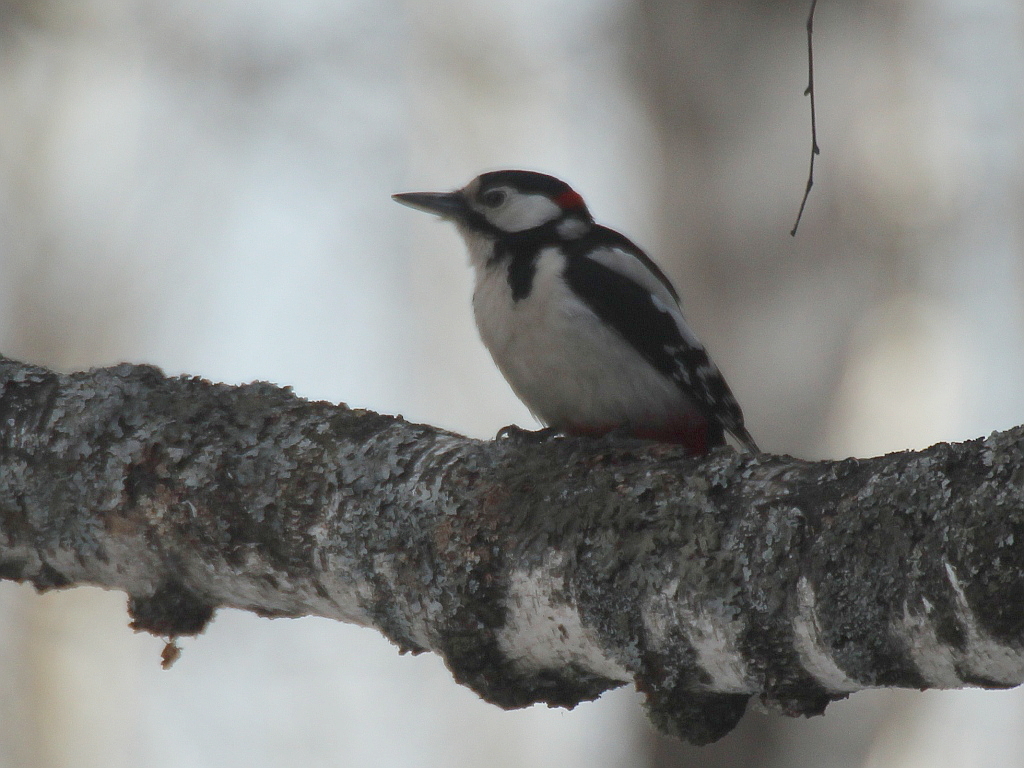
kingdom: Animalia
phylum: Chordata
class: Aves
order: Piciformes
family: Picidae
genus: Dendrocopos
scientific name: Dendrocopos major
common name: Great spotted woodpecker
